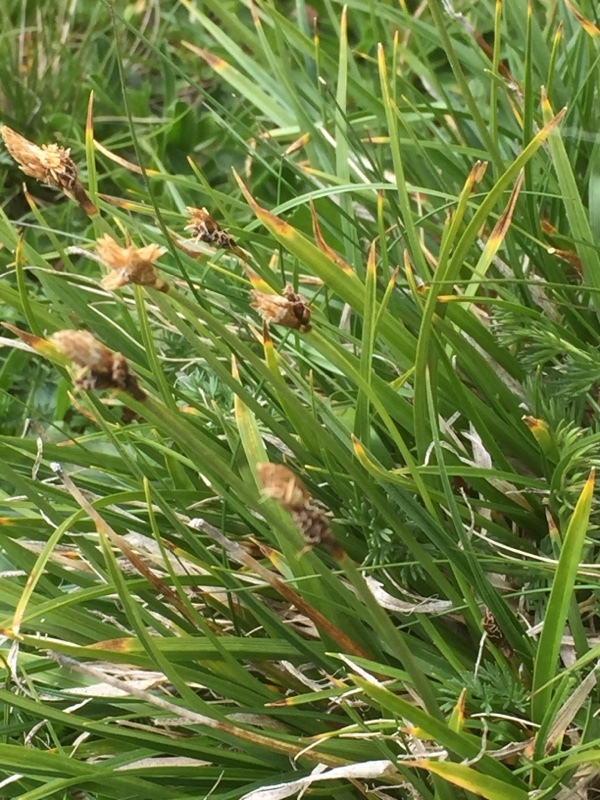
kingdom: Plantae
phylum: Tracheophyta
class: Liliopsida
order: Poales
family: Cyperaceae
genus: Carex
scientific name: Carex umbrosa
